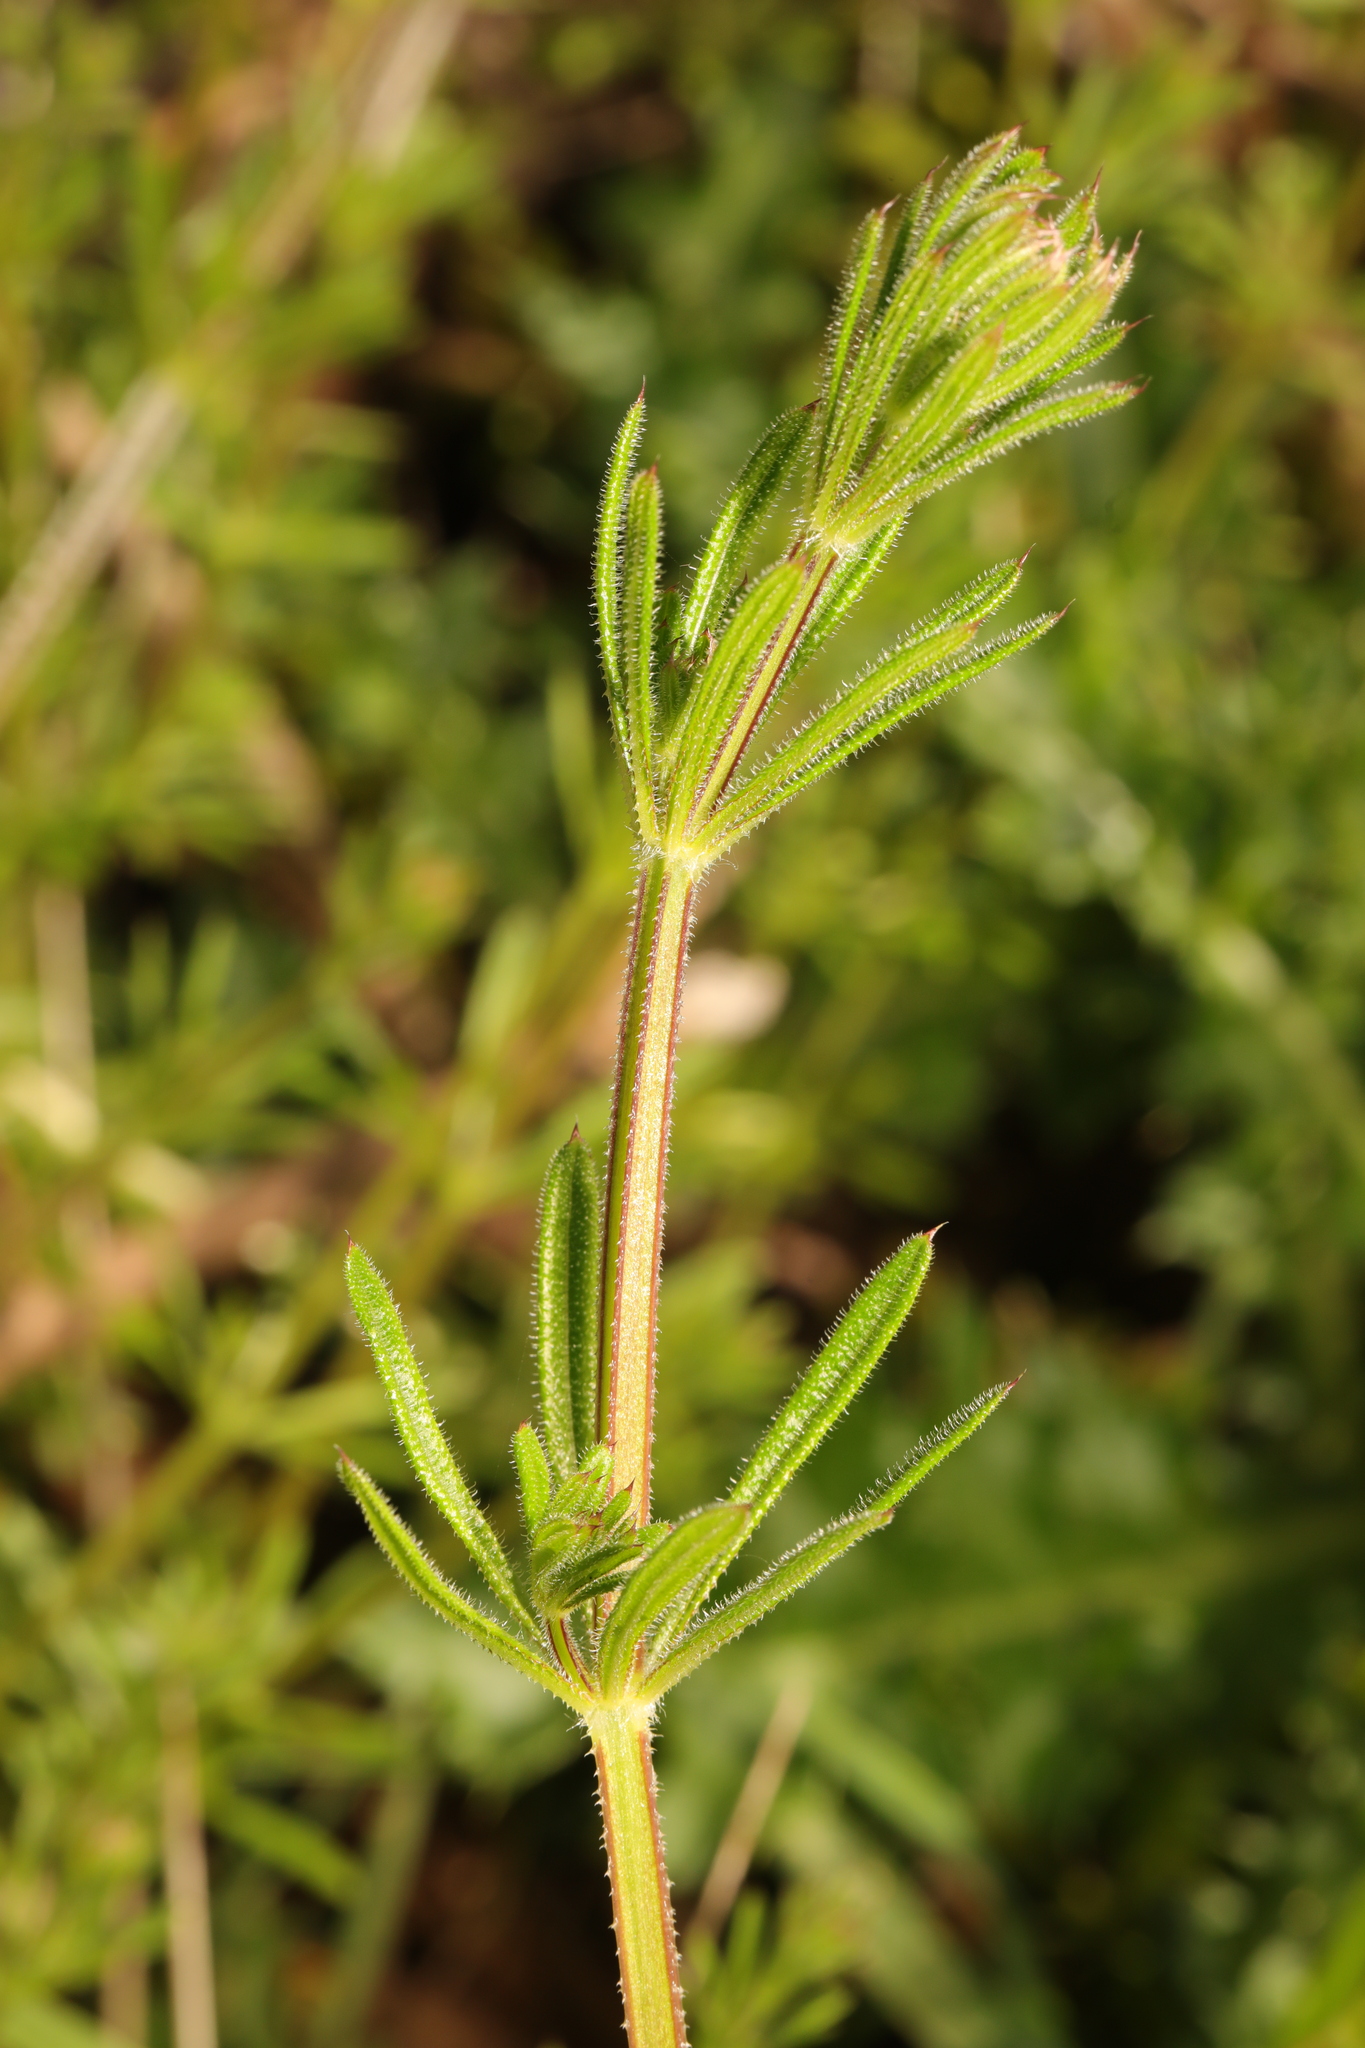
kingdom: Plantae
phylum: Tracheophyta
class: Magnoliopsida
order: Gentianales
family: Rubiaceae
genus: Galium
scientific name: Galium aparine
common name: Cleavers
